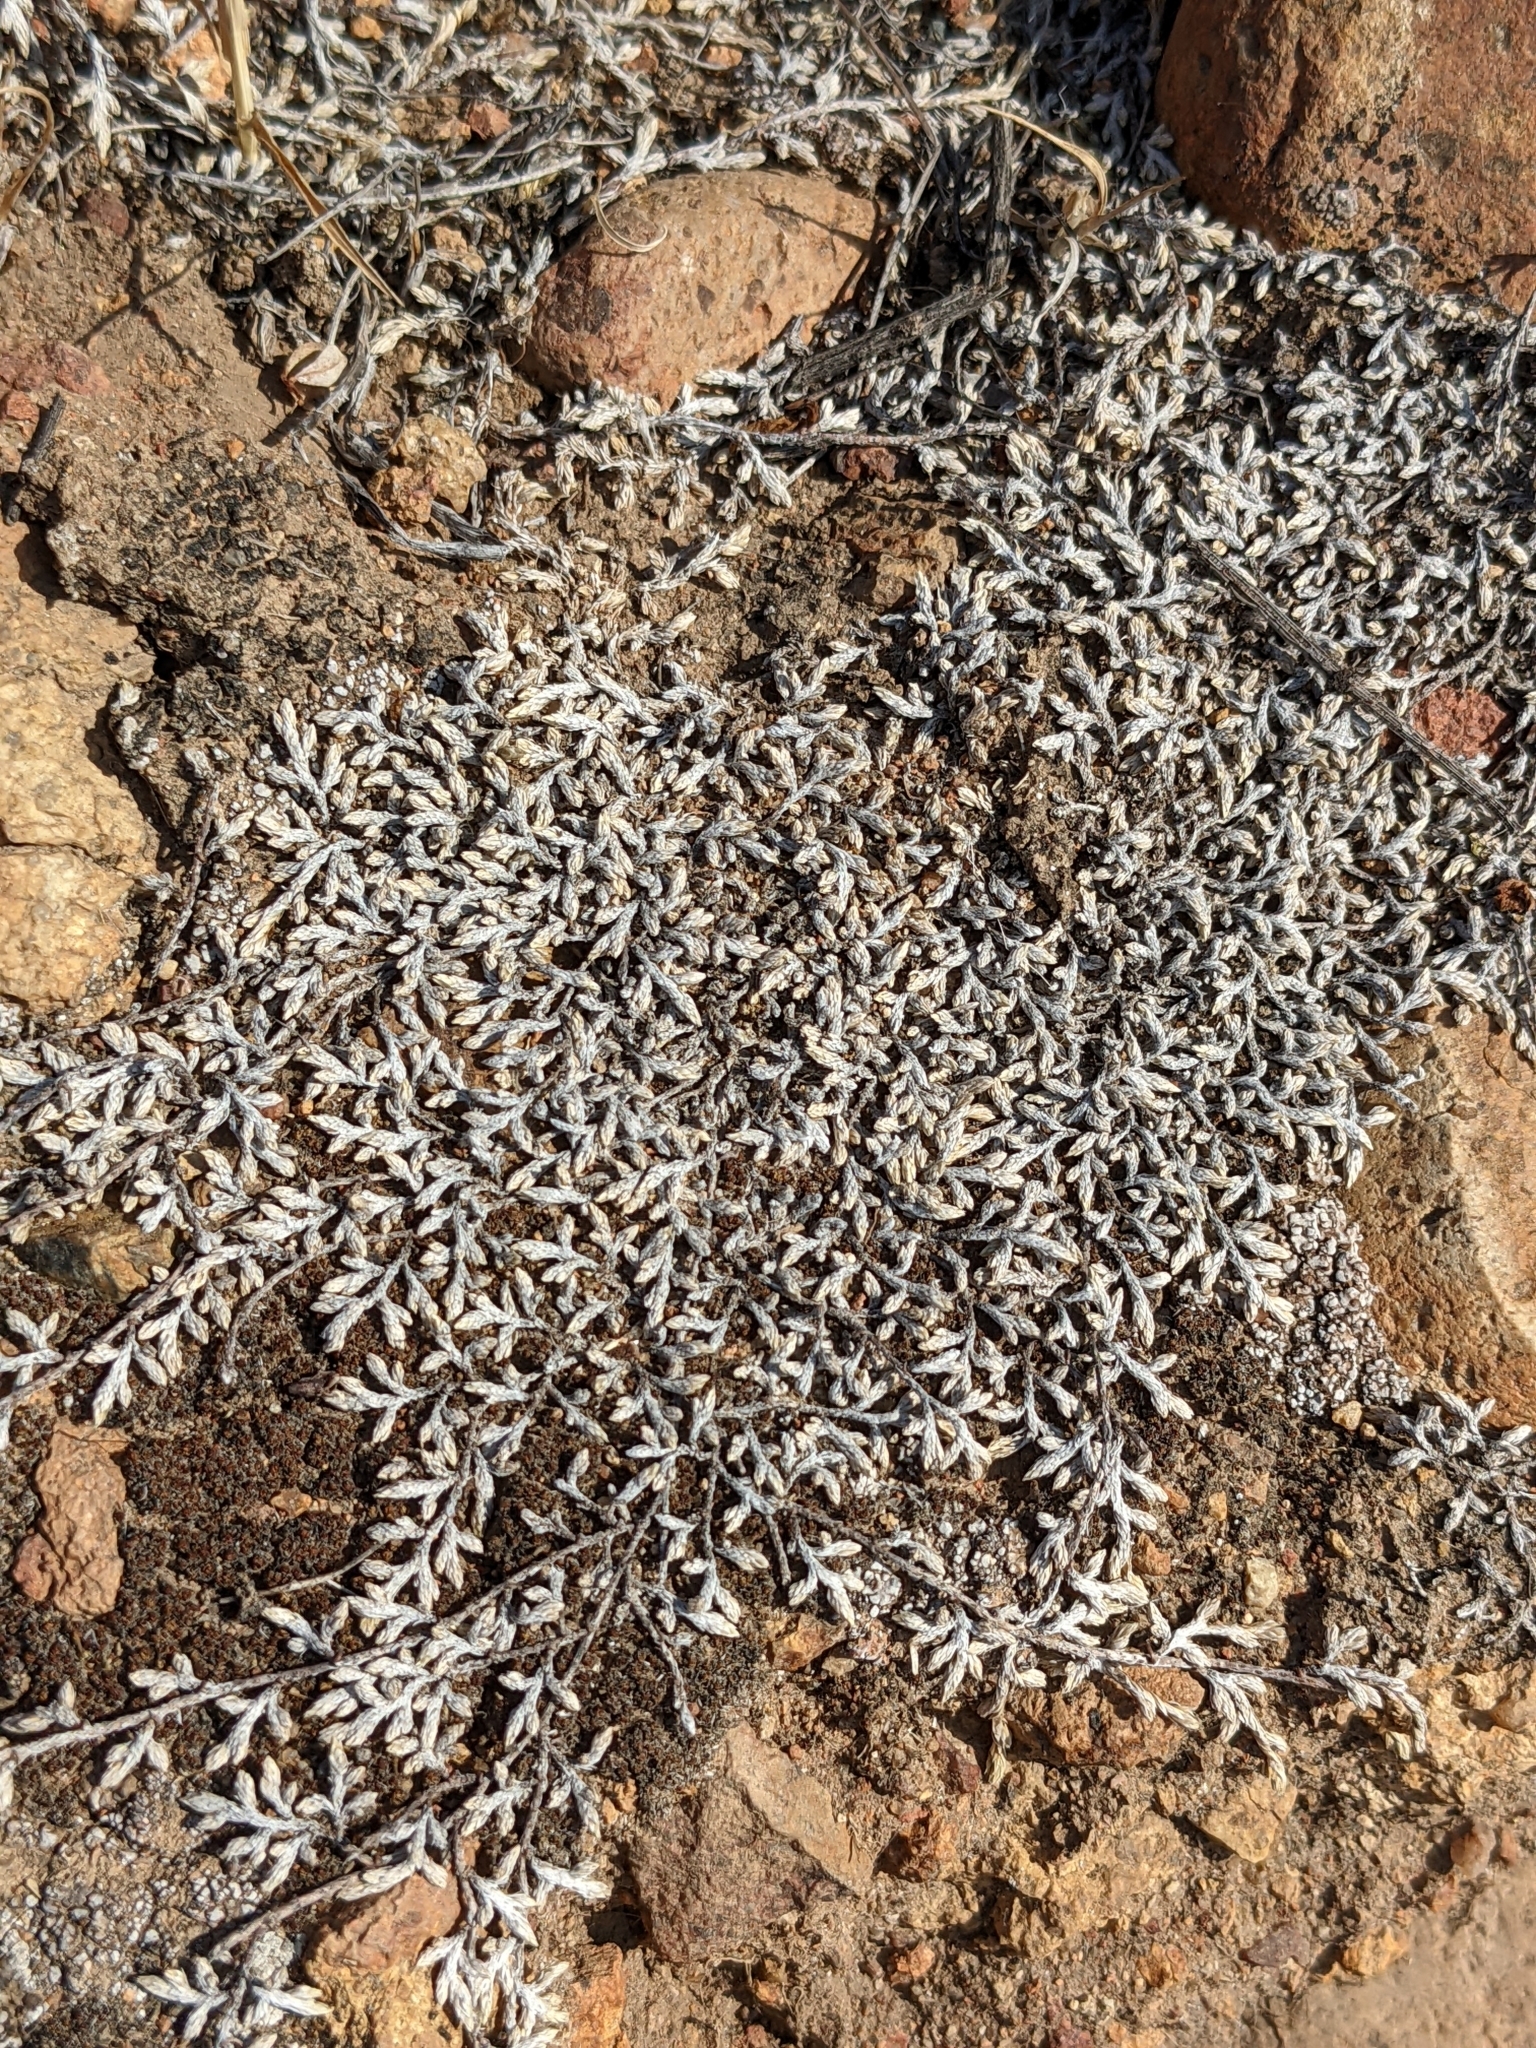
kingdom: Plantae
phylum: Tracheophyta
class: Lycopodiopsida
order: Selaginellales
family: Selaginellaceae
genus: Selaginella
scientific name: Selaginella cinerascens
